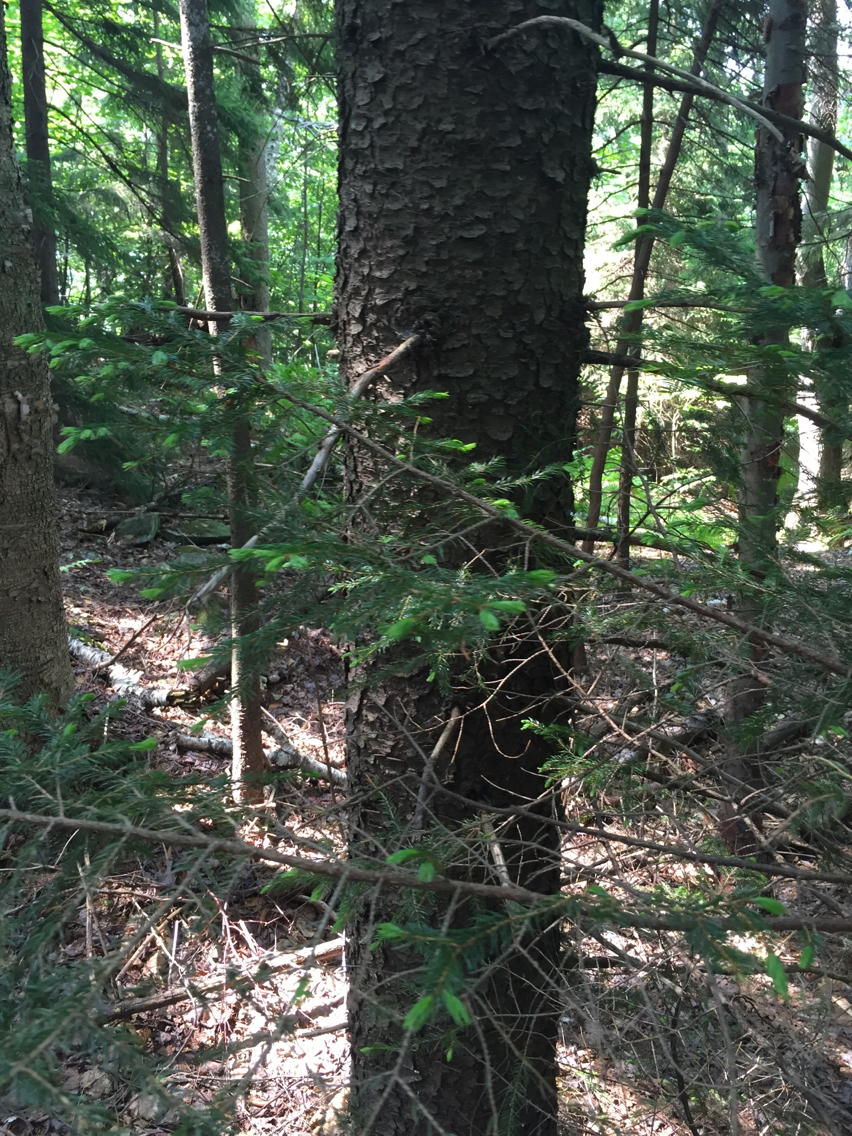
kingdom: Plantae
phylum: Tracheophyta
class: Pinopsida
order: Pinales
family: Pinaceae
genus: Picea
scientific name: Picea rubens
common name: Red spruce
